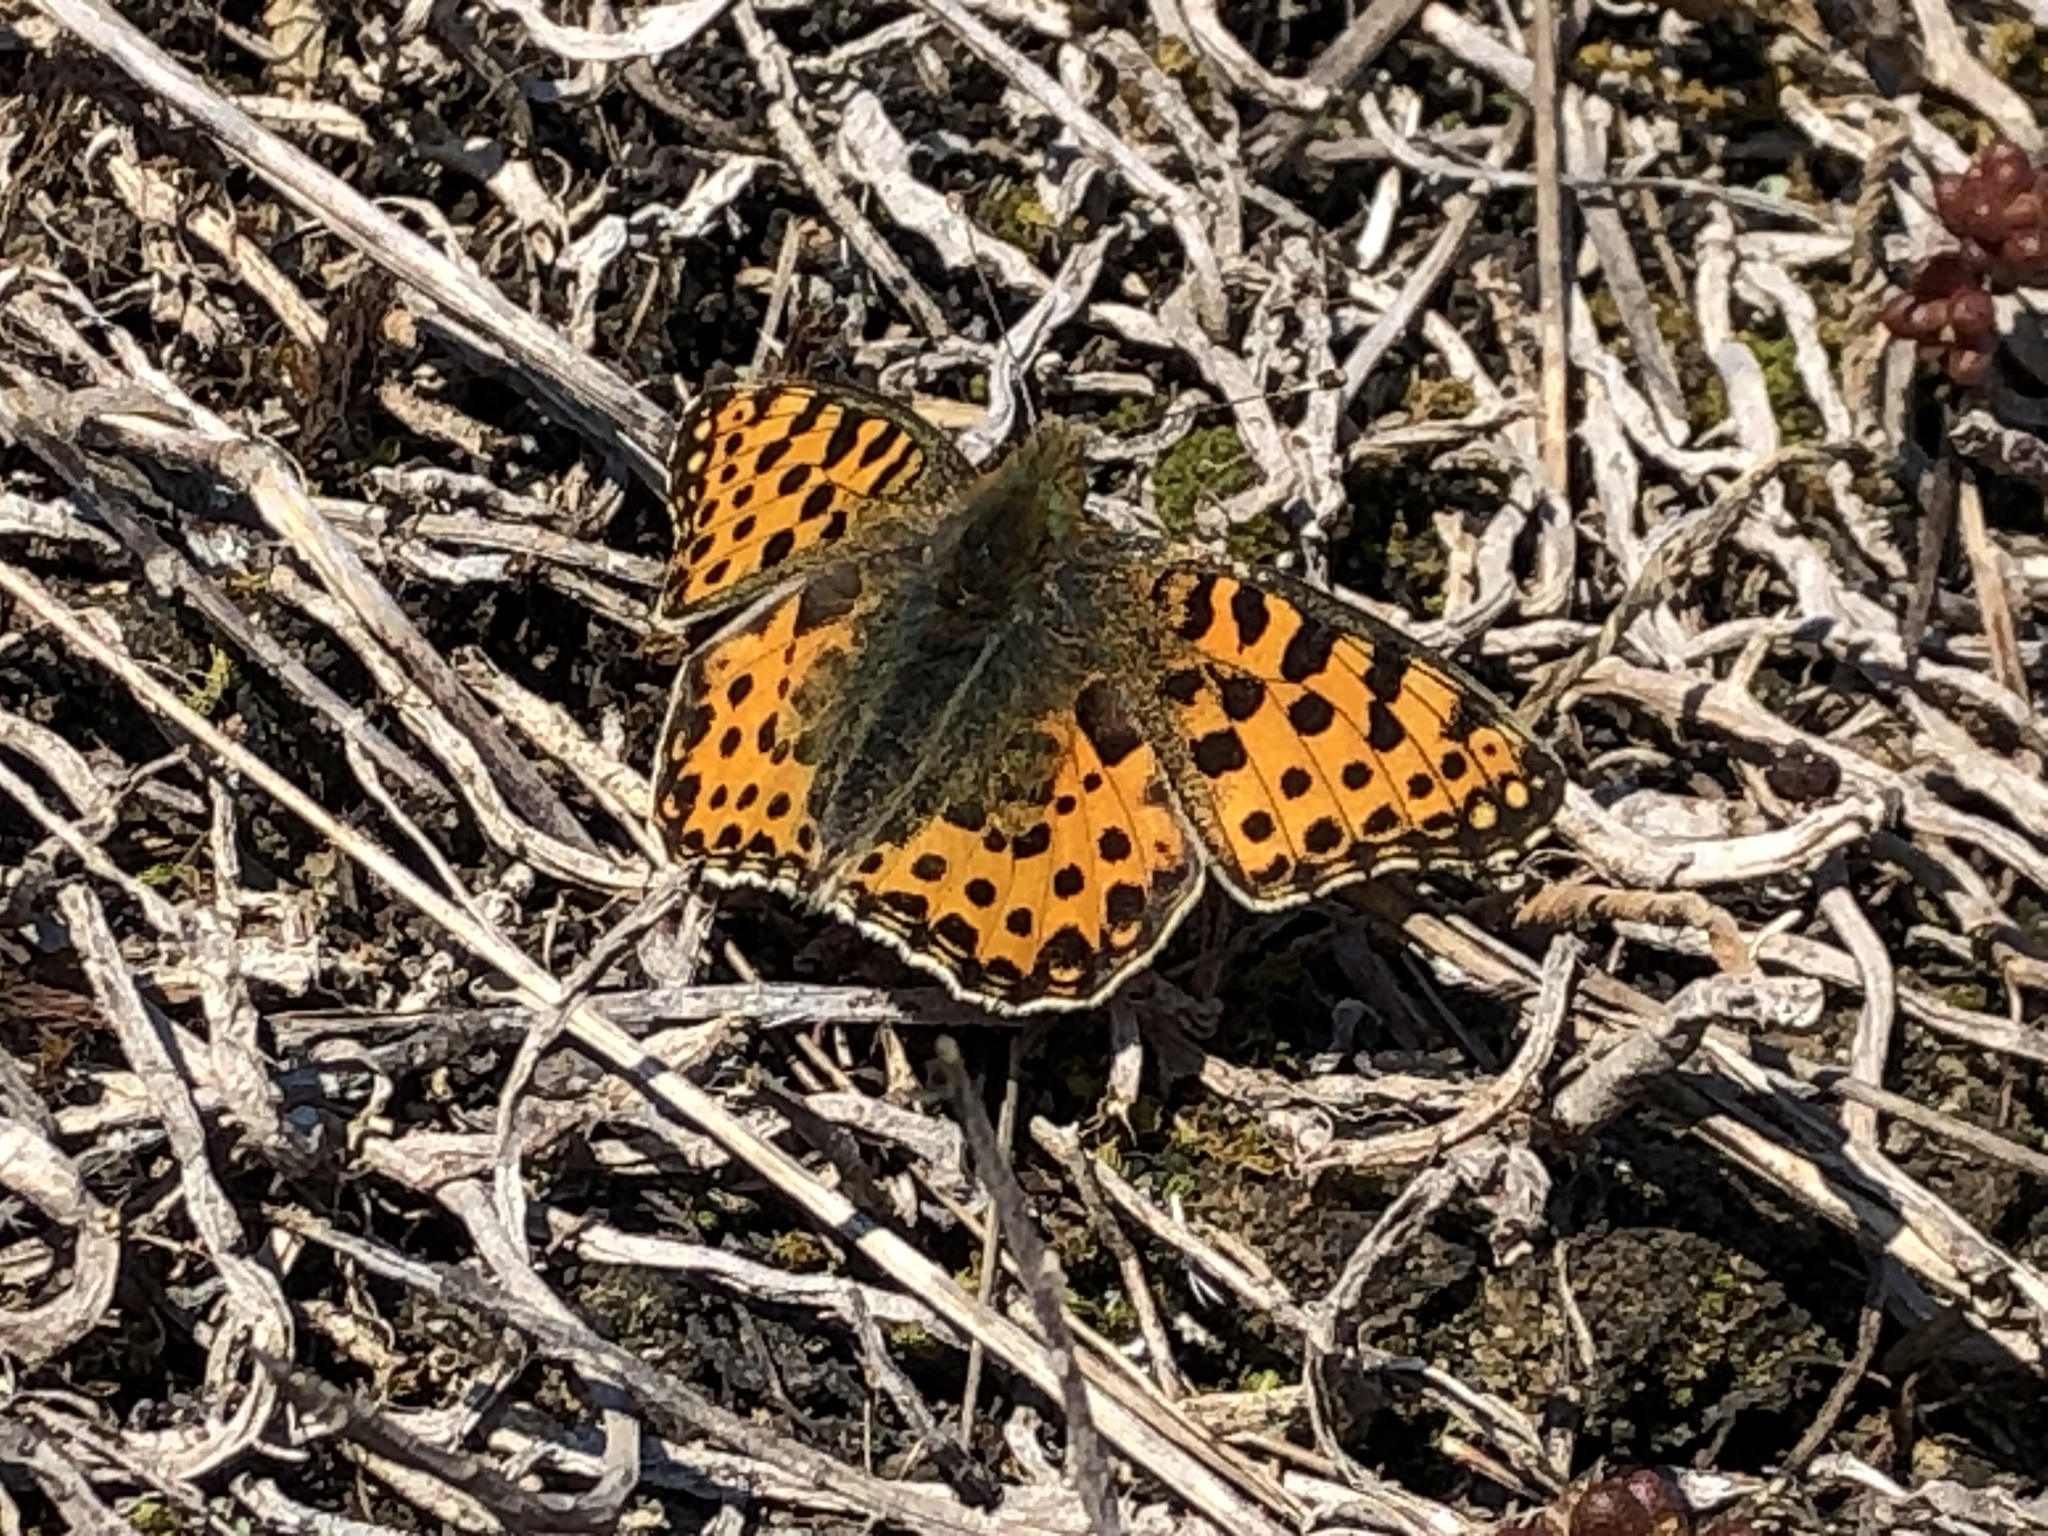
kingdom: Animalia
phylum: Arthropoda
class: Insecta
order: Lepidoptera
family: Nymphalidae
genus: Issoria
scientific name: Issoria lathonia
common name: Queen of spain fritillary
